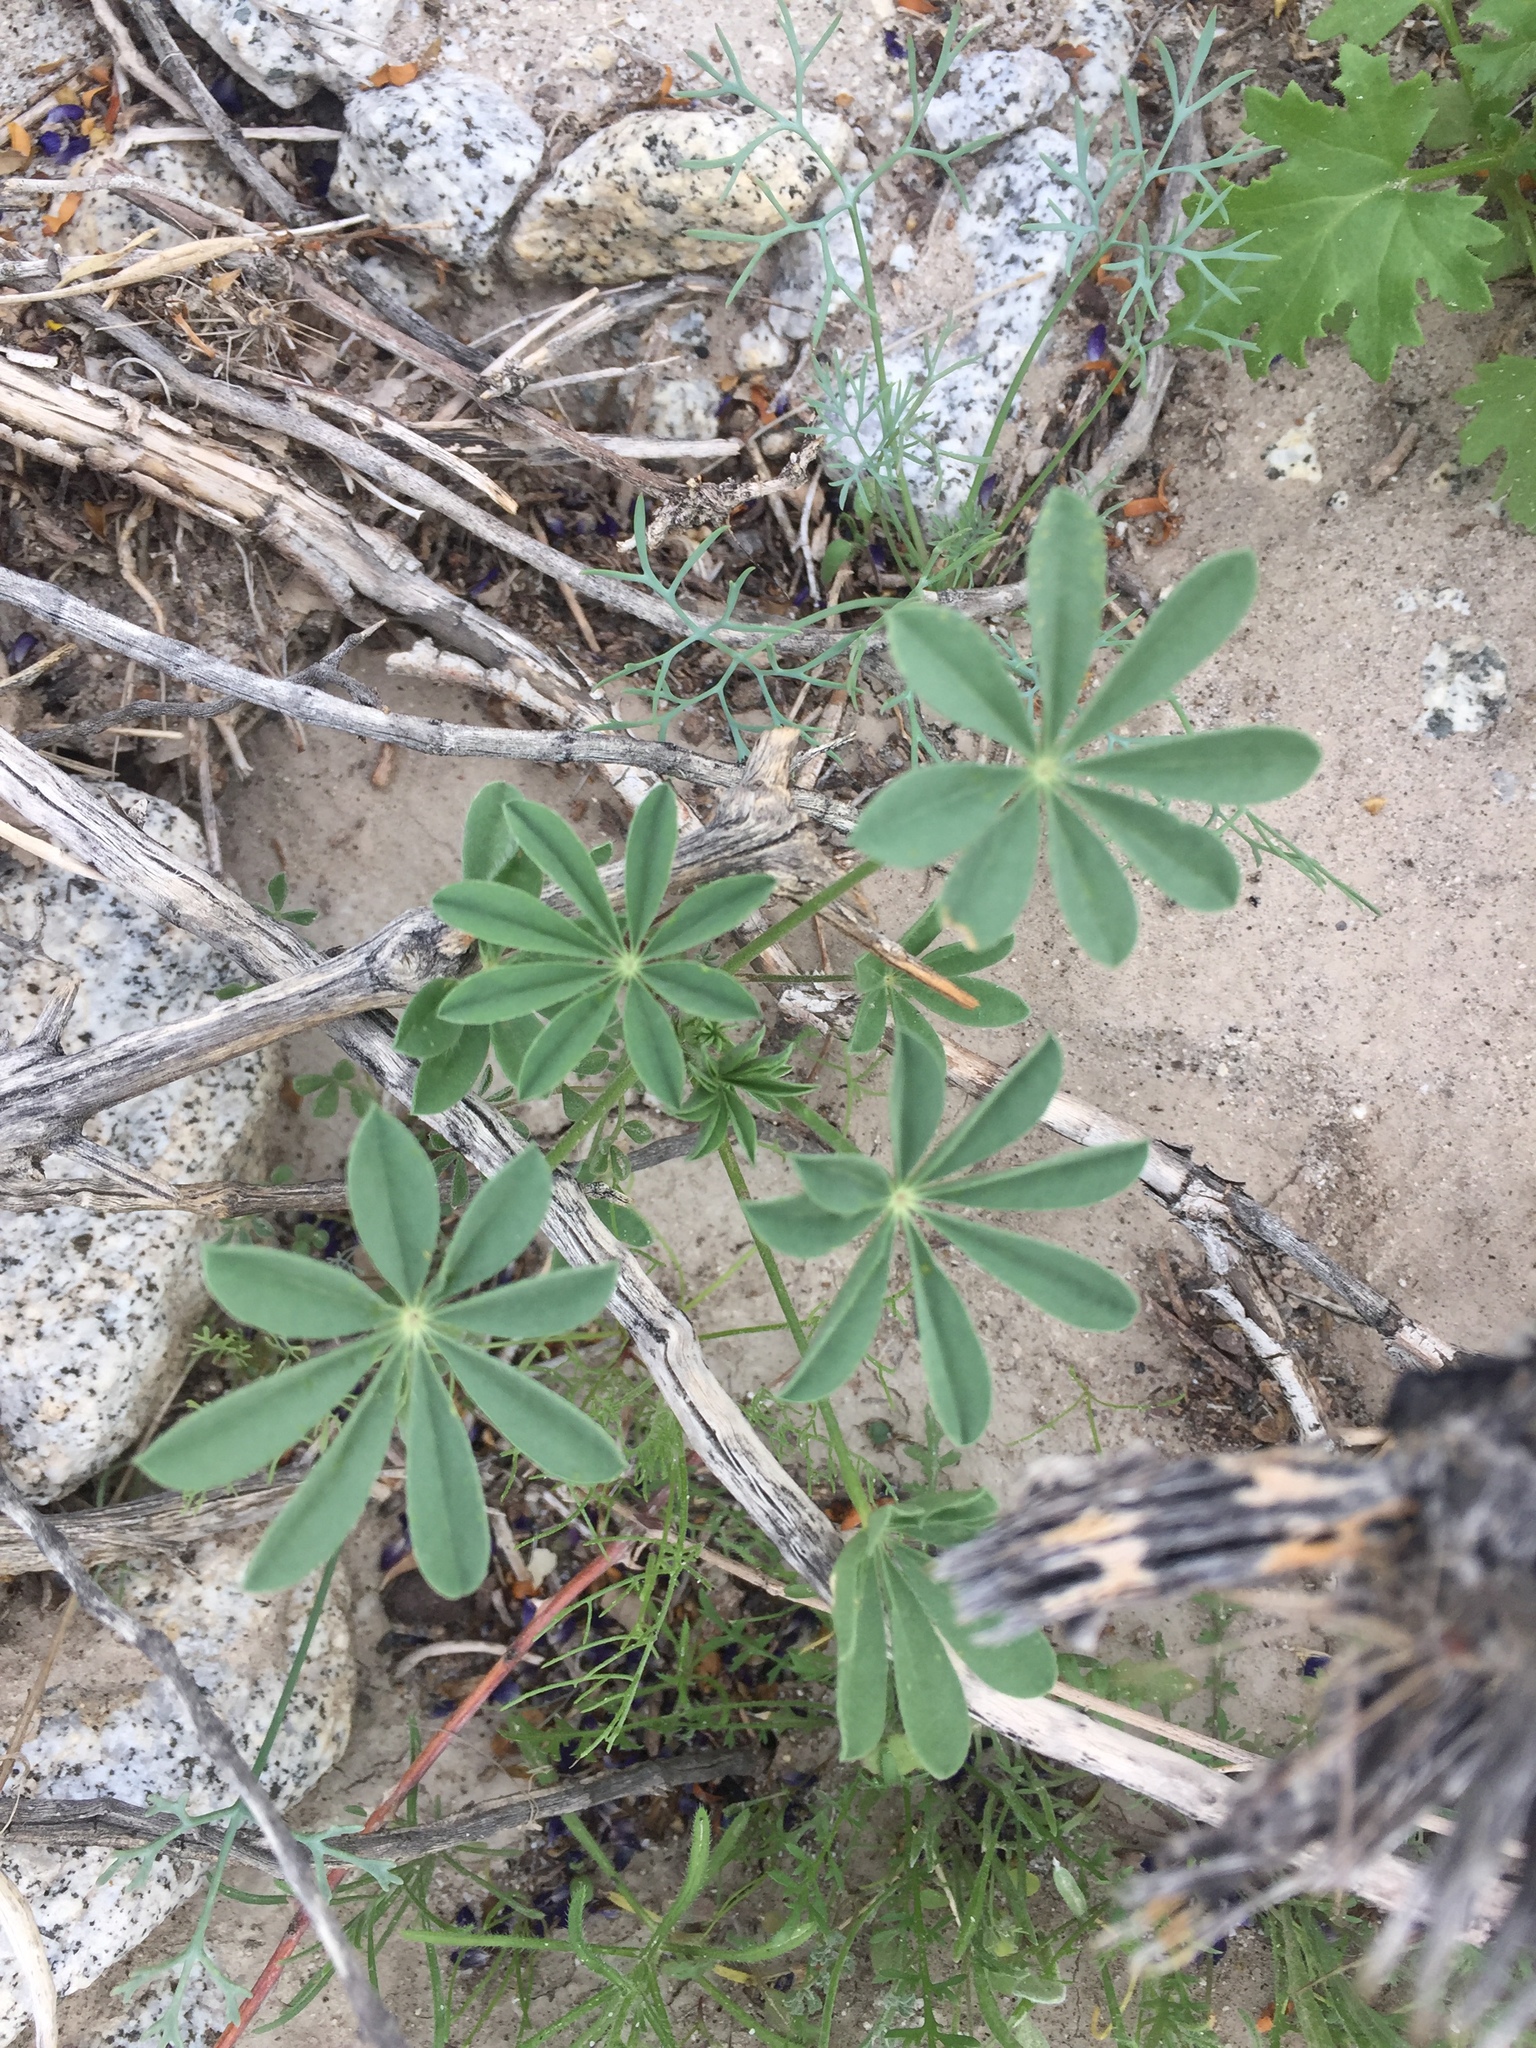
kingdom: Plantae
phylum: Tracheophyta
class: Magnoliopsida
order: Fabales
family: Fabaceae
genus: Lupinus
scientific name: Lupinus arizonicus
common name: Arizona lupine
